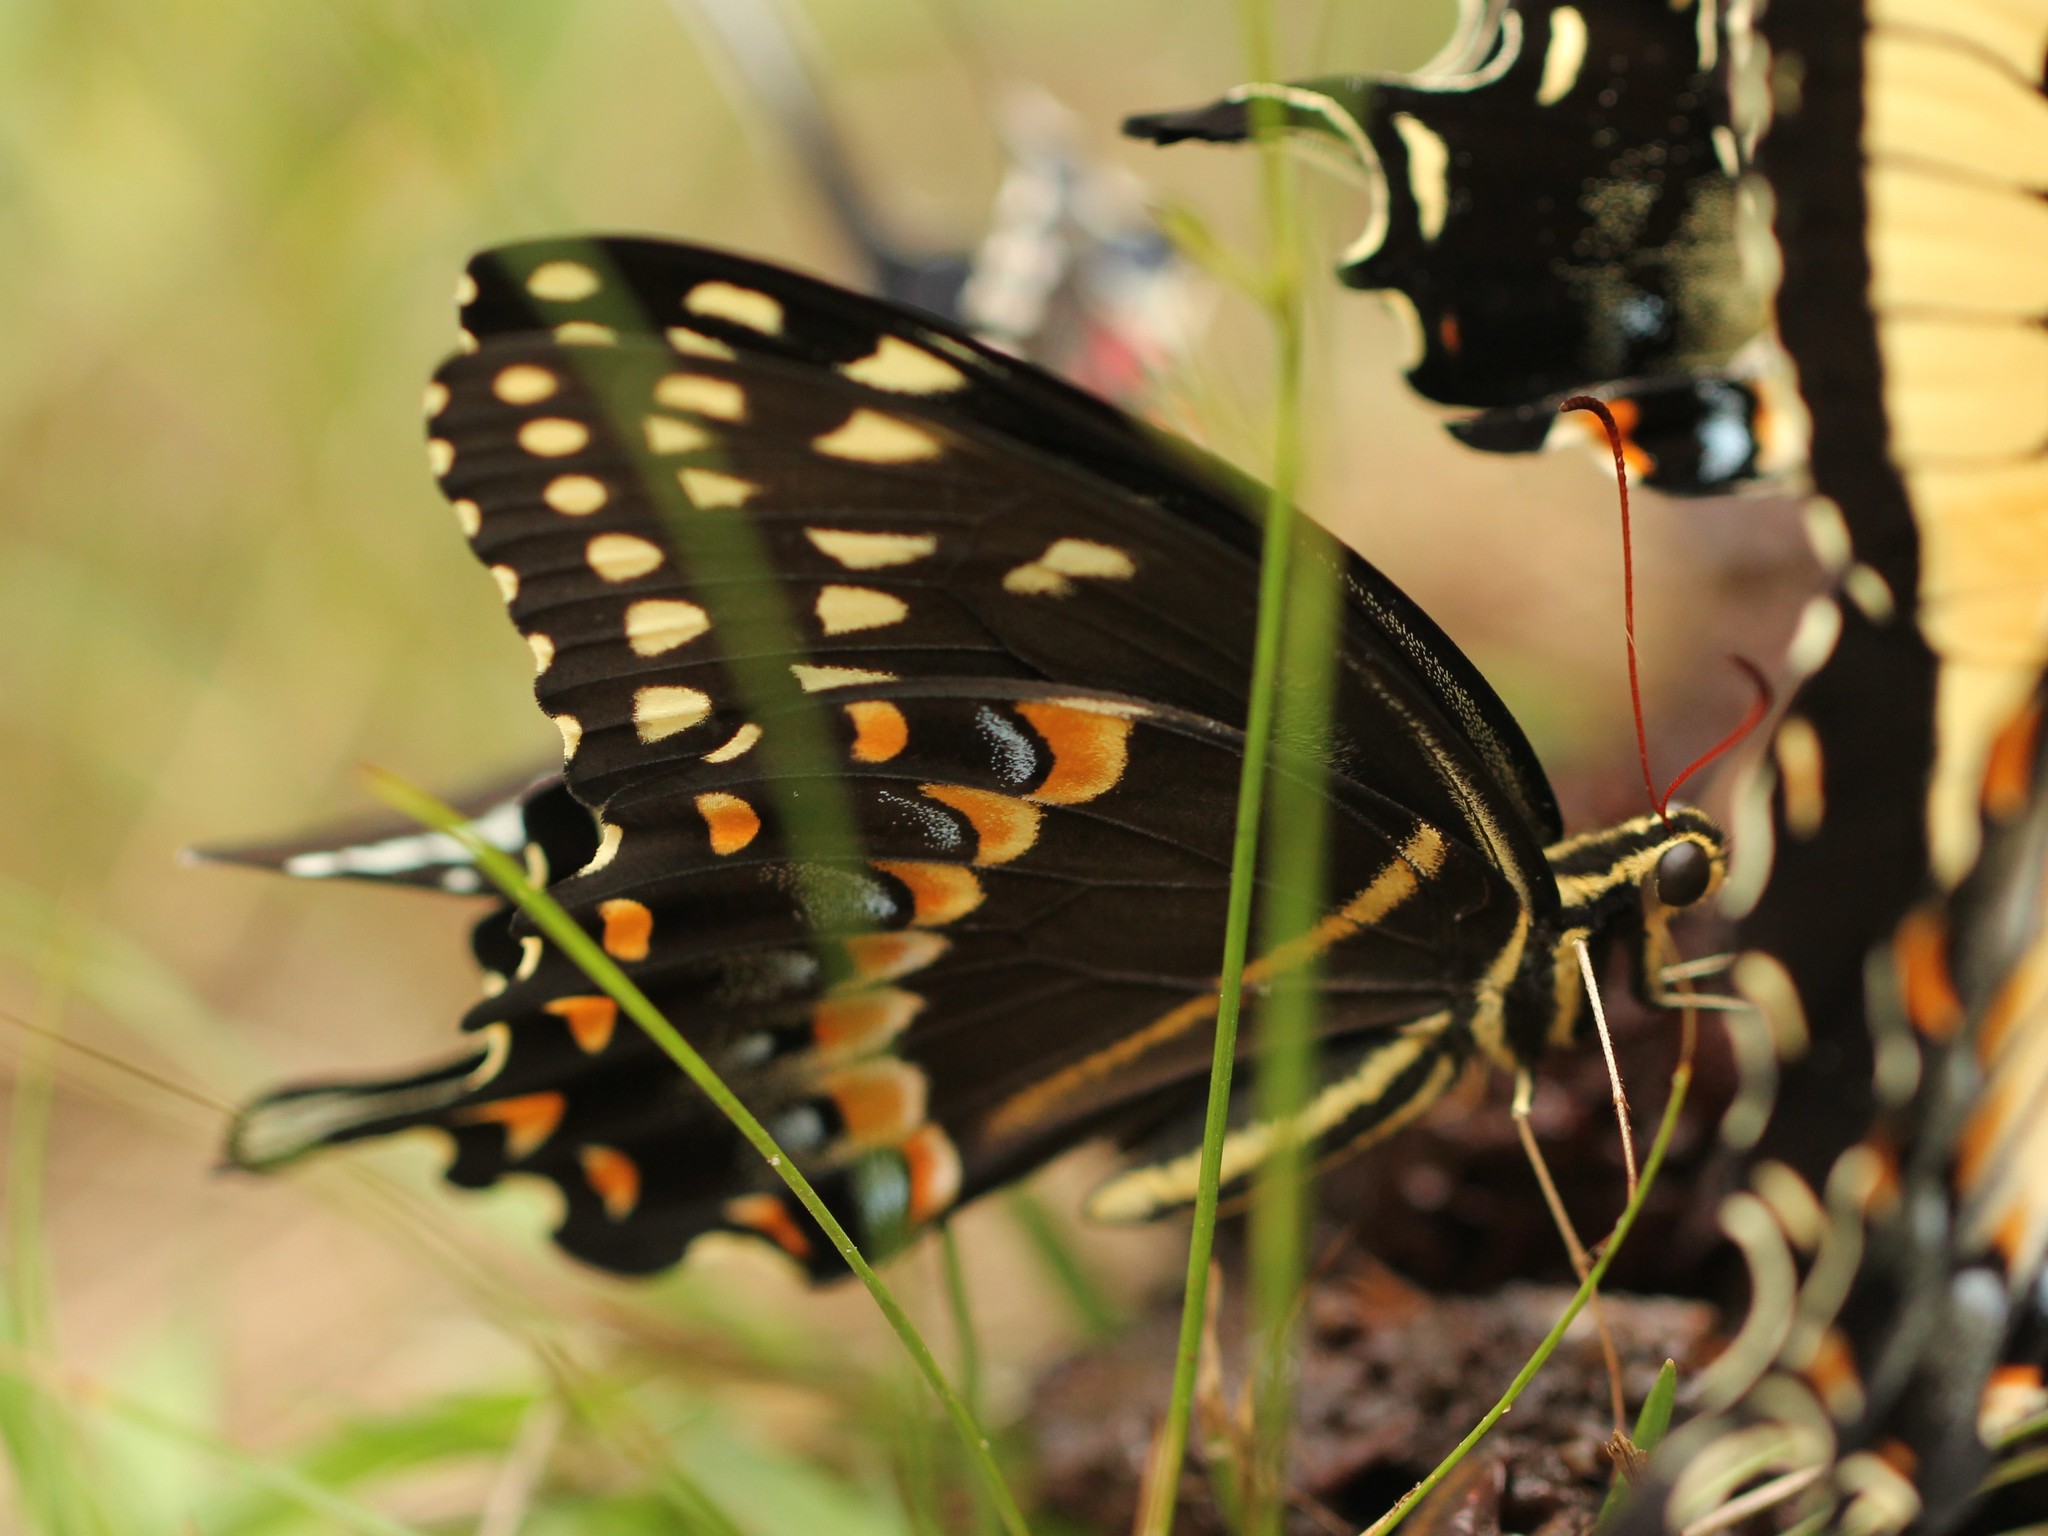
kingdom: Animalia
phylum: Arthropoda
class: Insecta
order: Lepidoptera
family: Papilionidae
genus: Papilio
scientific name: Papilio palamedes
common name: Palamedes swallowtail
